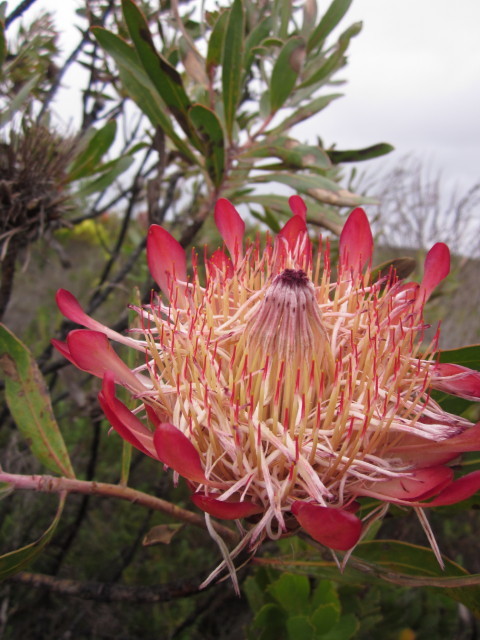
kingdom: Plantae
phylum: Tracheophyta
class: Magnoliopsida
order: Proteales
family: Proteaceae
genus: Protea
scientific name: Protea susannae
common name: Foetid-leaf sugarbush
